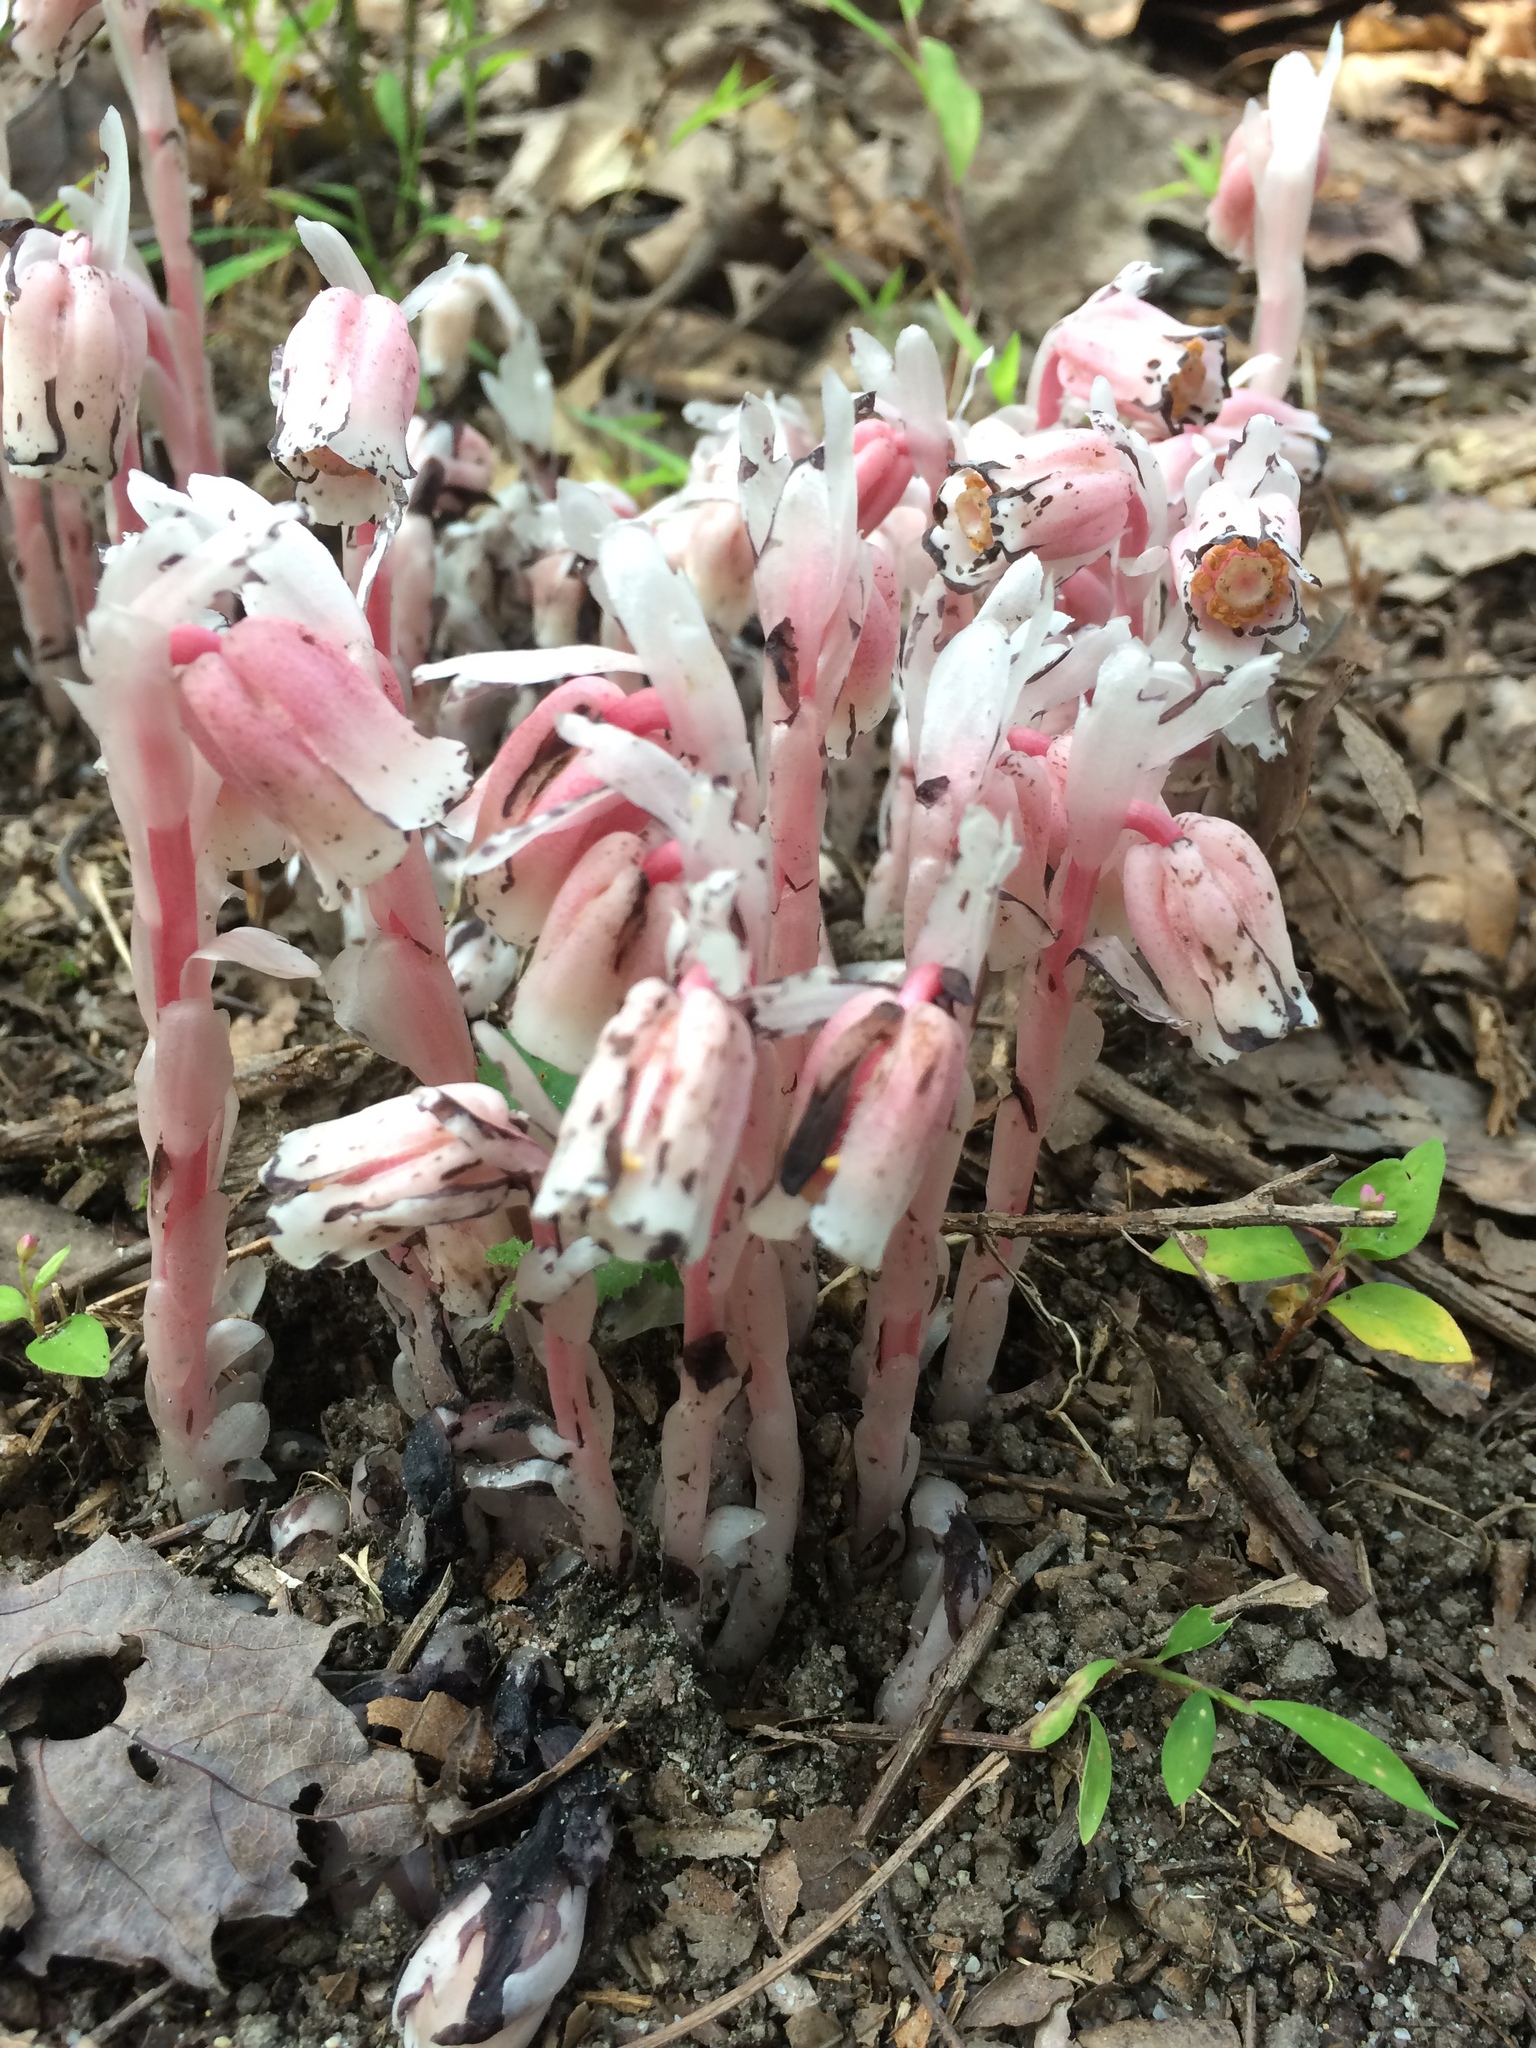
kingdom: Plantae
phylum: Tracheophyta
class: Magnoliopsida
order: Ericales
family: Ericaceae
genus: Monotropa
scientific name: Monotropa uniflora
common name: Convulsion root
